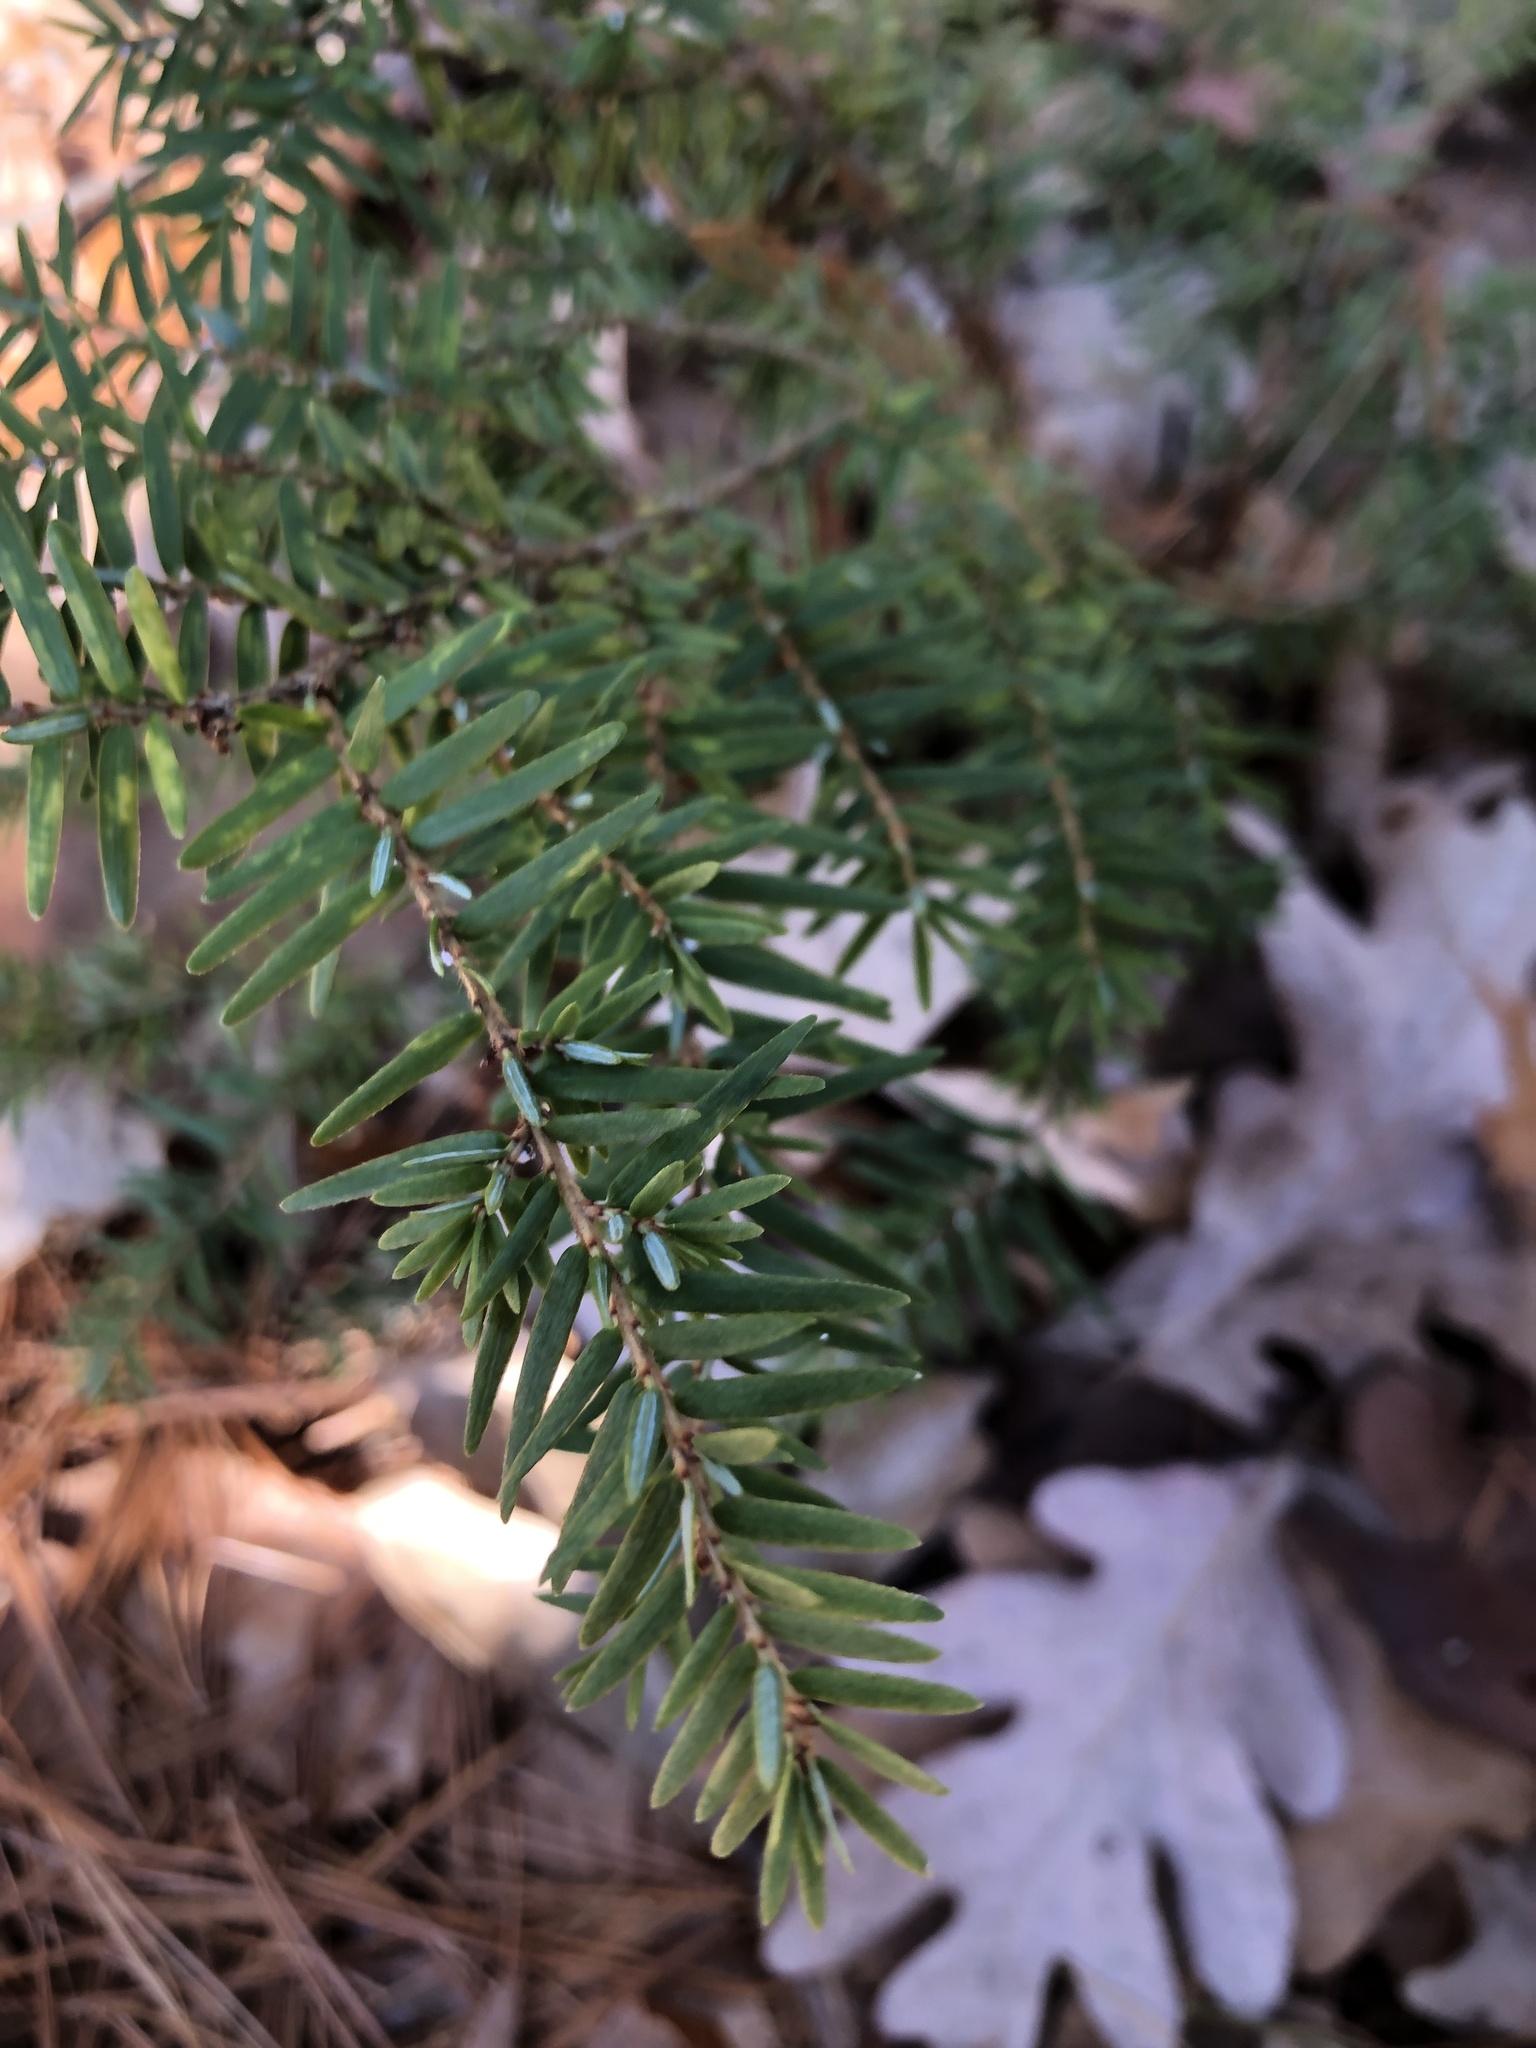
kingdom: Plantae
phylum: Tracheophyta
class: Pinopsida
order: Pinales
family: Pinaceae
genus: Tsuga
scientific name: Tsuga canadensis
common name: Eastern hemlock
